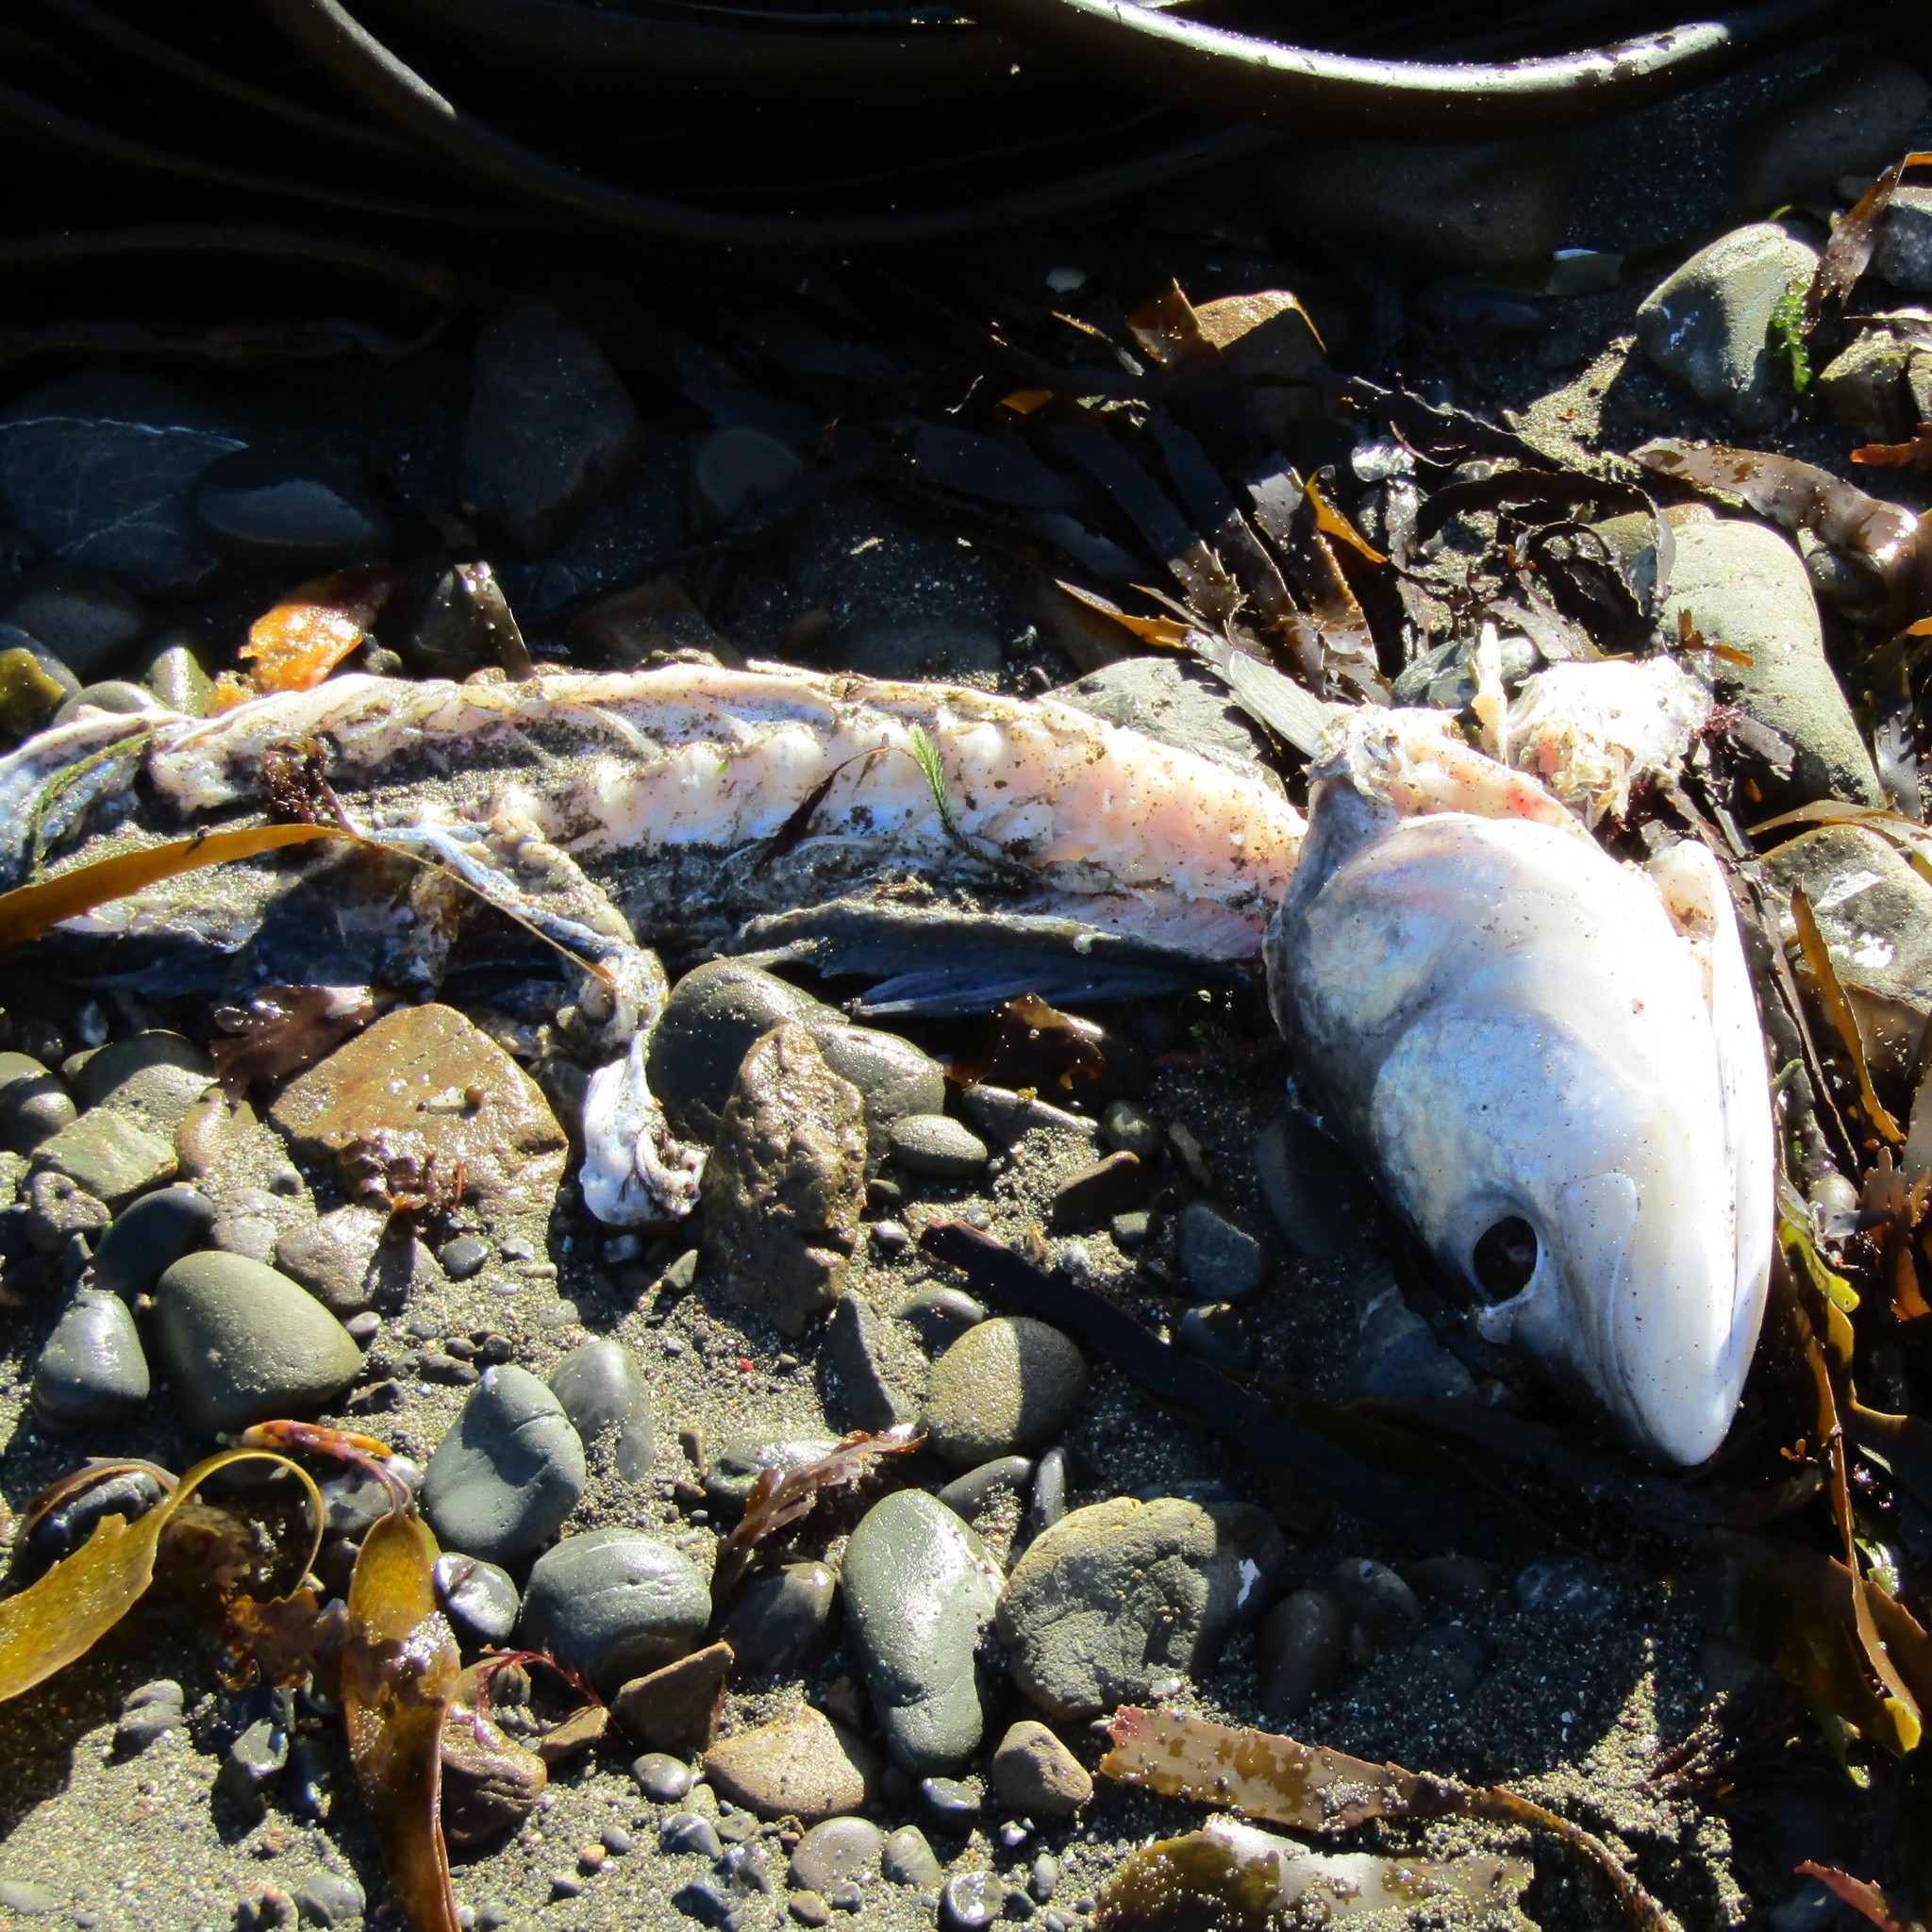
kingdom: Animalia
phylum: Chordata
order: Perciformes
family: Arripidae
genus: Arripis
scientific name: Arripis trutta
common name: Kahawai
